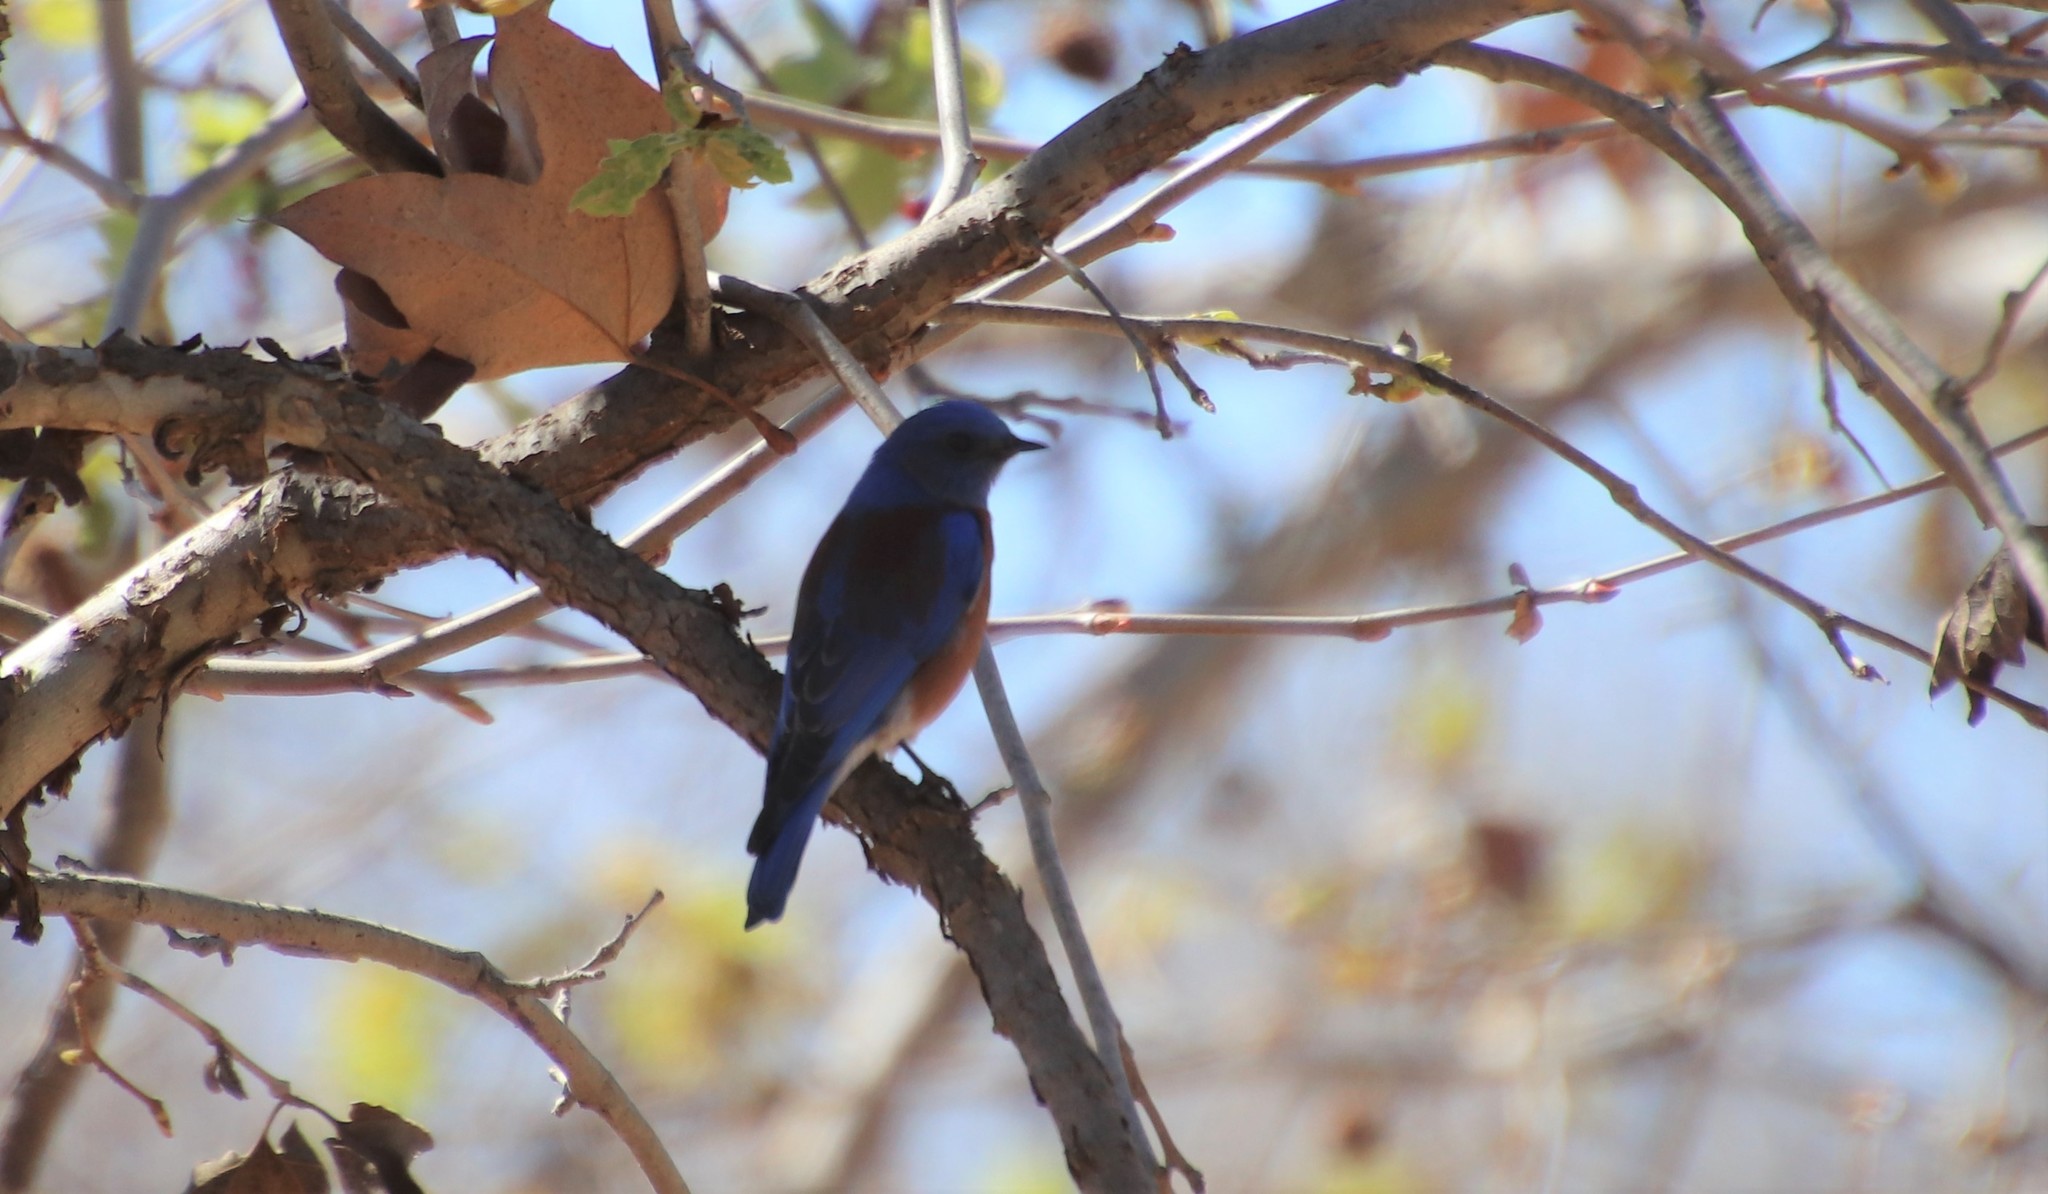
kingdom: Animalia
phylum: Chordata
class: Aves
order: Passeriformes
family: Turdidae
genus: Sialia
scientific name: Sialia mexicana
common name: Western bluebird
